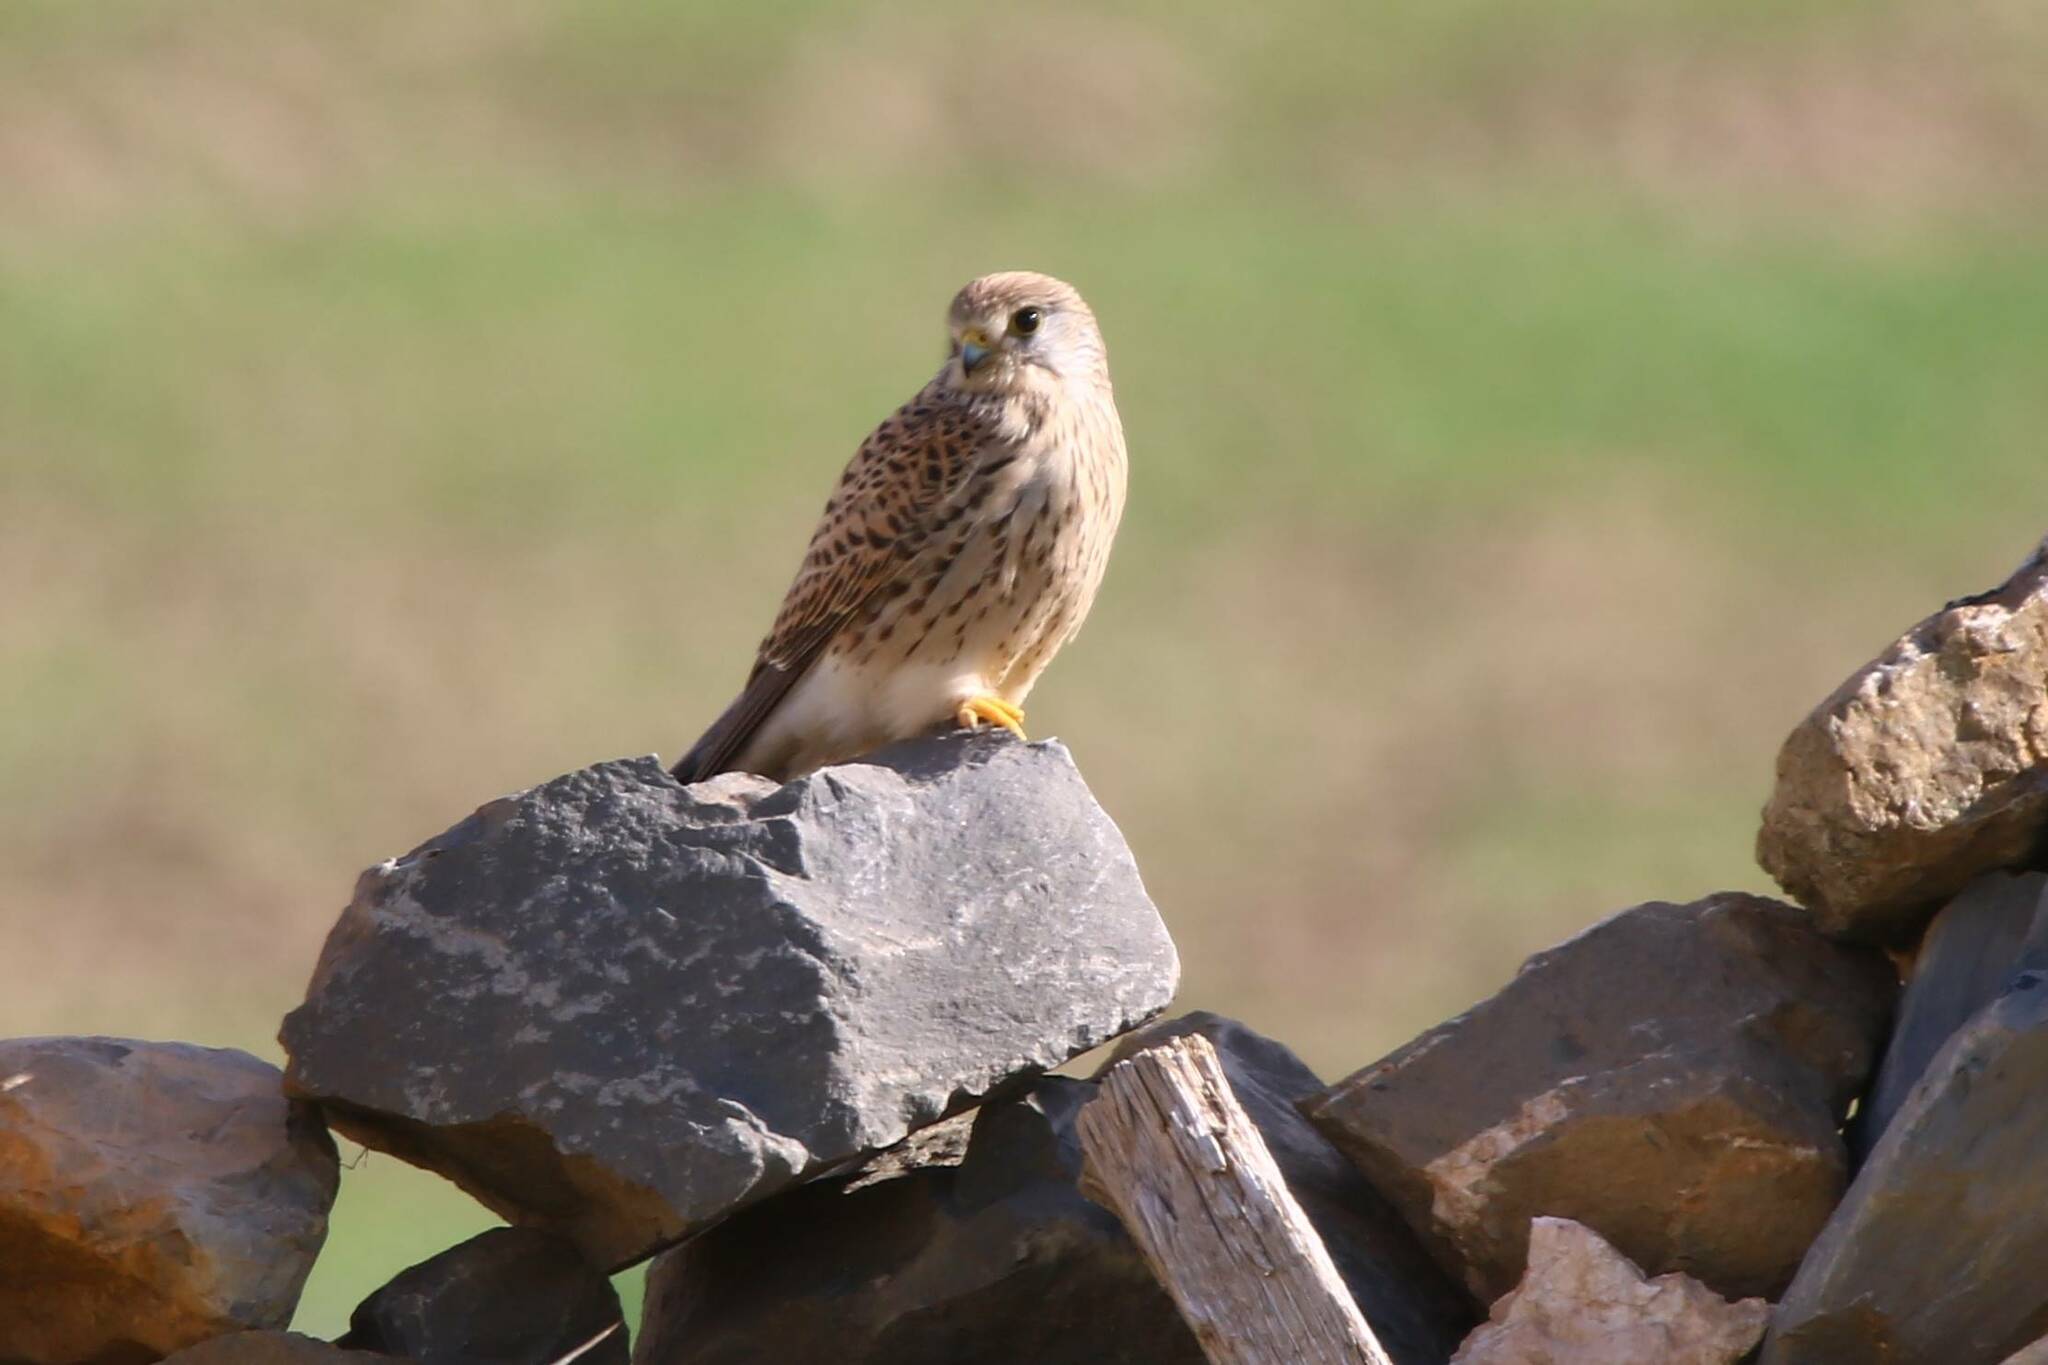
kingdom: Animalia
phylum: Chordata
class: Aves
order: Falconiformes
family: Falconidae
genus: Falco
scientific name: Falco tinnunculus
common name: Common kestrel
